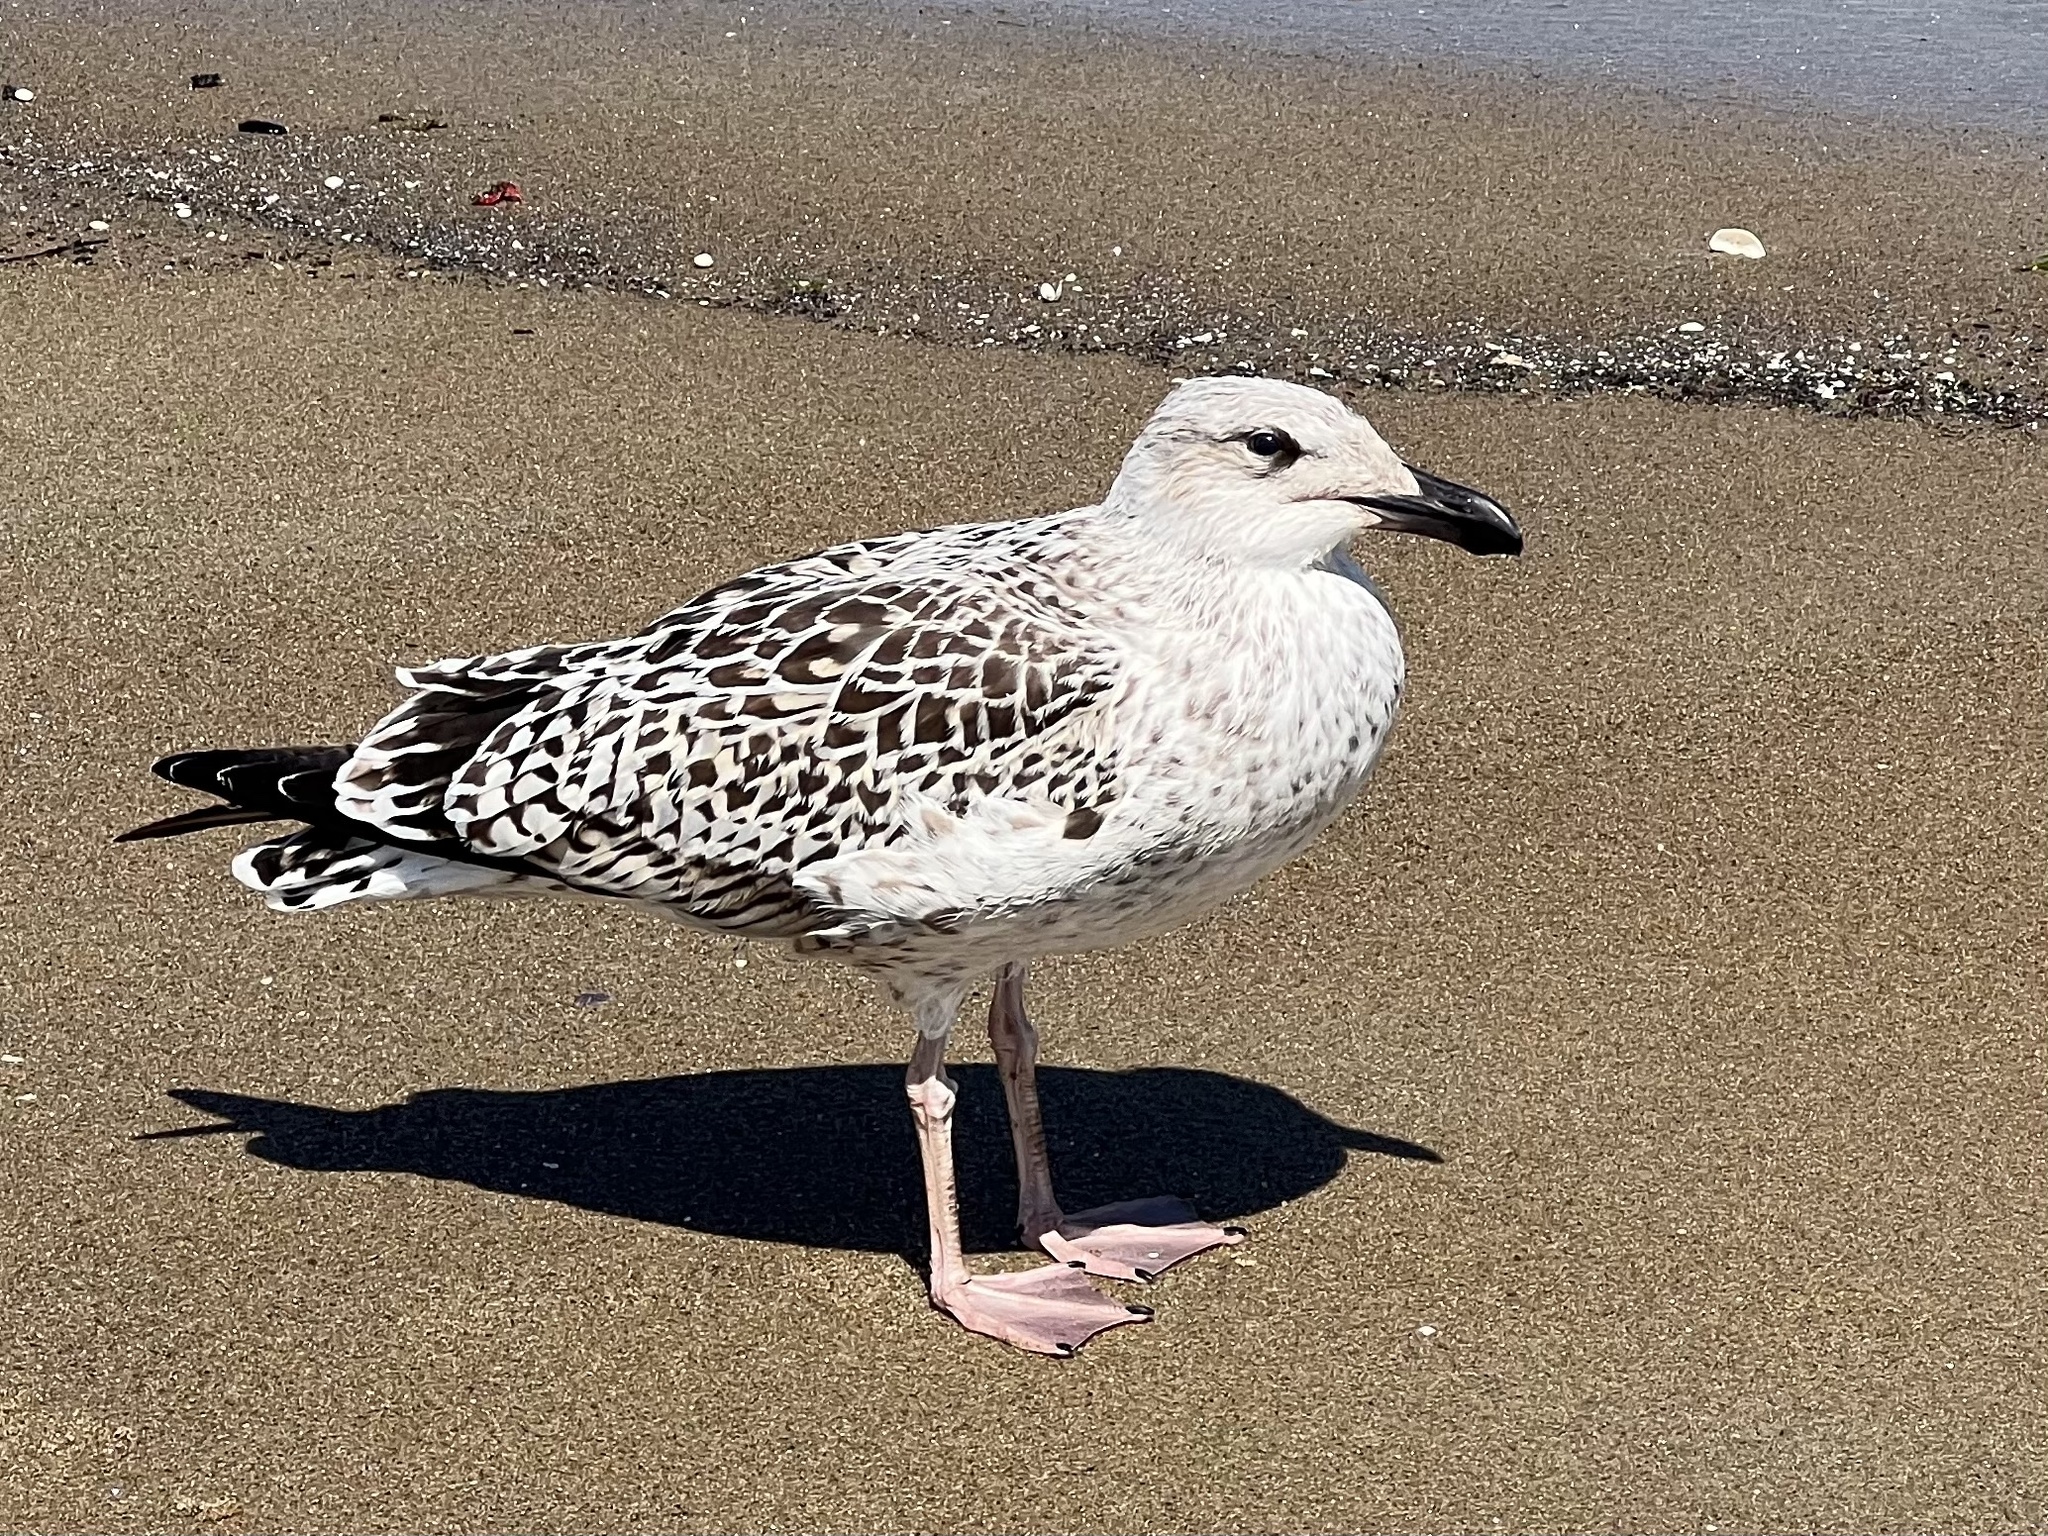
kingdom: Animalia
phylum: Chordata
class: Aves
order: Charadriiformes
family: Laridae
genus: Larus
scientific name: Larus marinus
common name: Great black-backed gull
